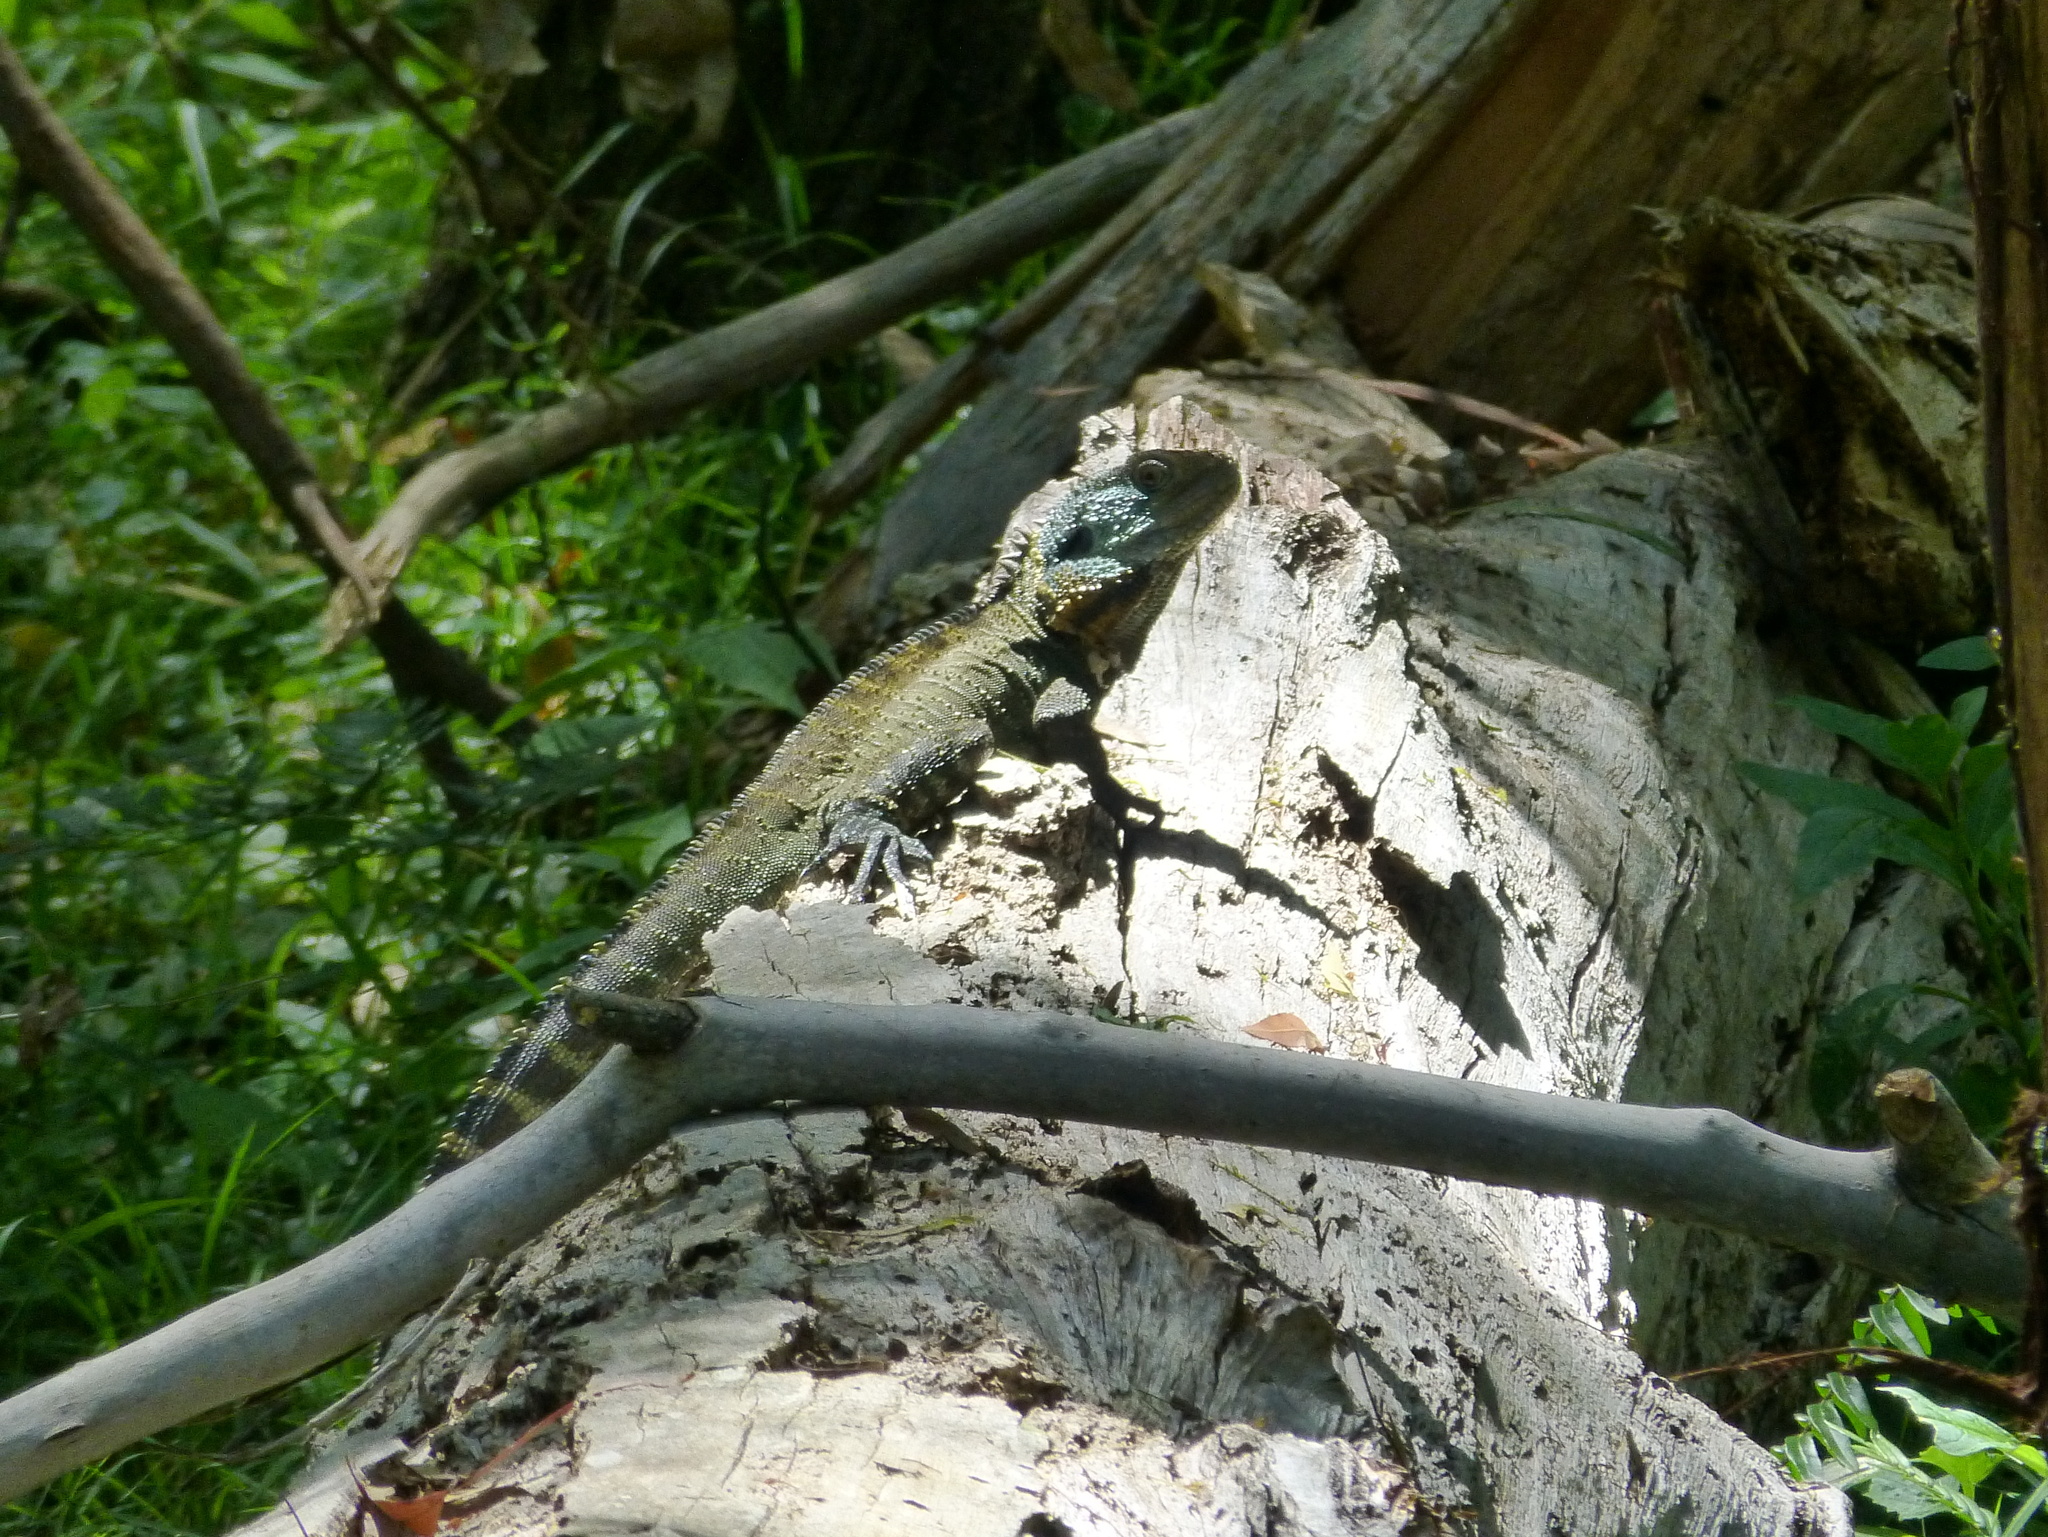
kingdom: Animalia
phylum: Chordata
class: Squamata
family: Agamidae
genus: Intellagama
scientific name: Intellagama lesueurii
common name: Eastern water dragon
